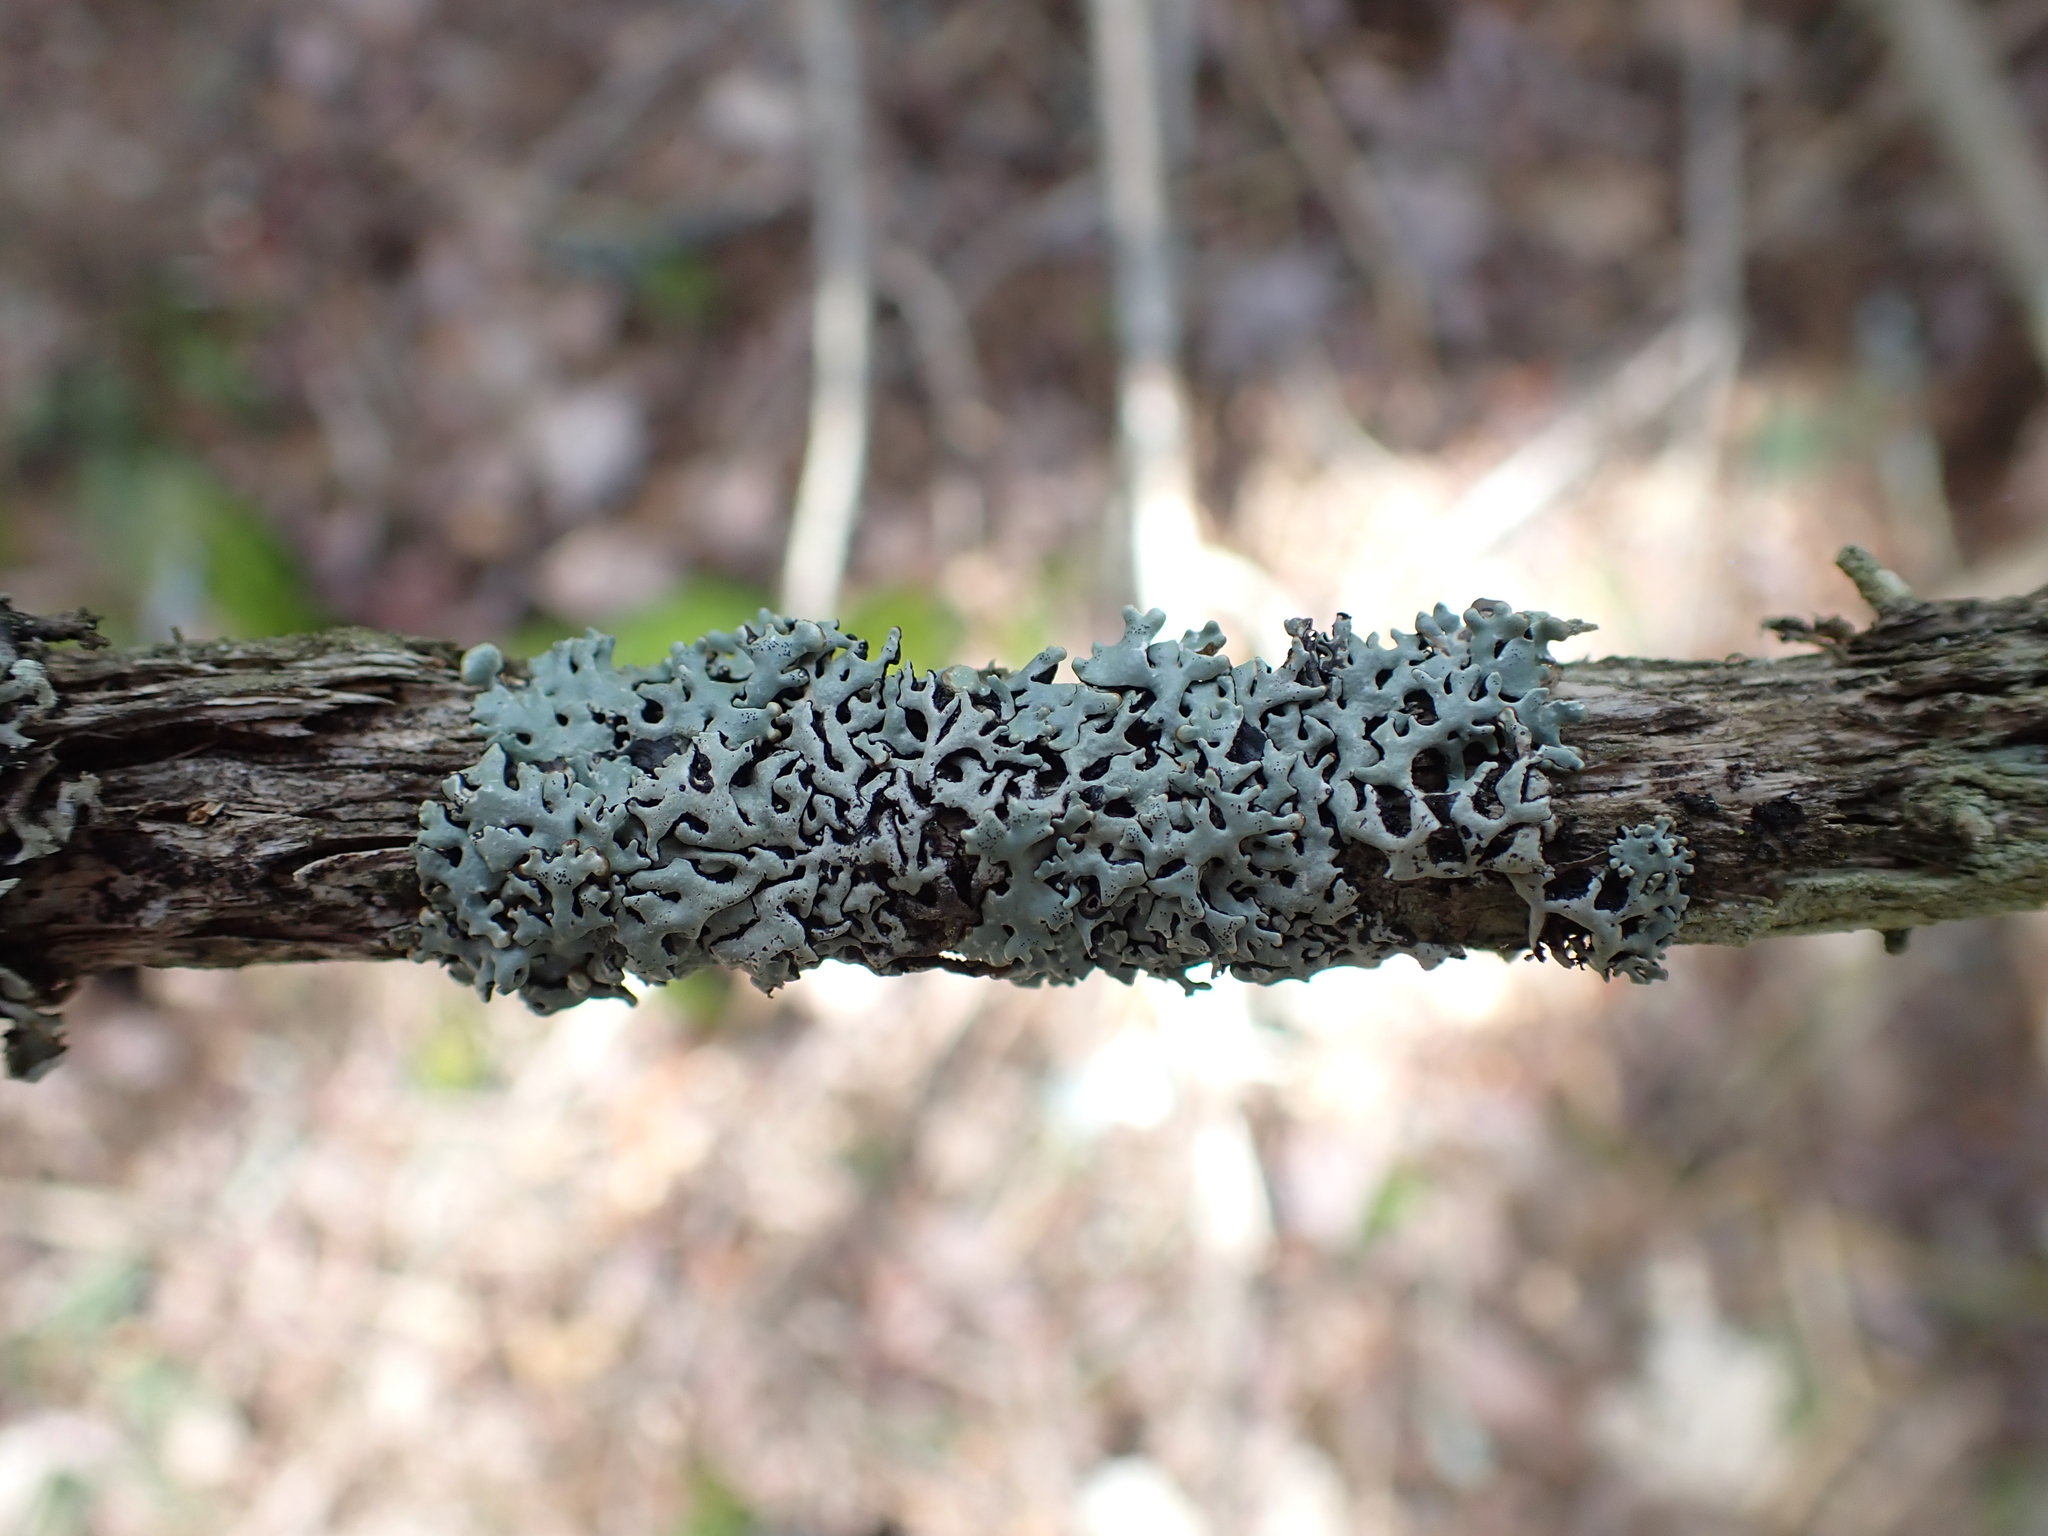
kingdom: Fungi
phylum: Ascomycota
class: Lecanoromycetes
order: Lecanorales
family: Parmeliaceae
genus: Hypogymnia
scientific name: Hypogymnia krogiae
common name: Freckled tube lichen
